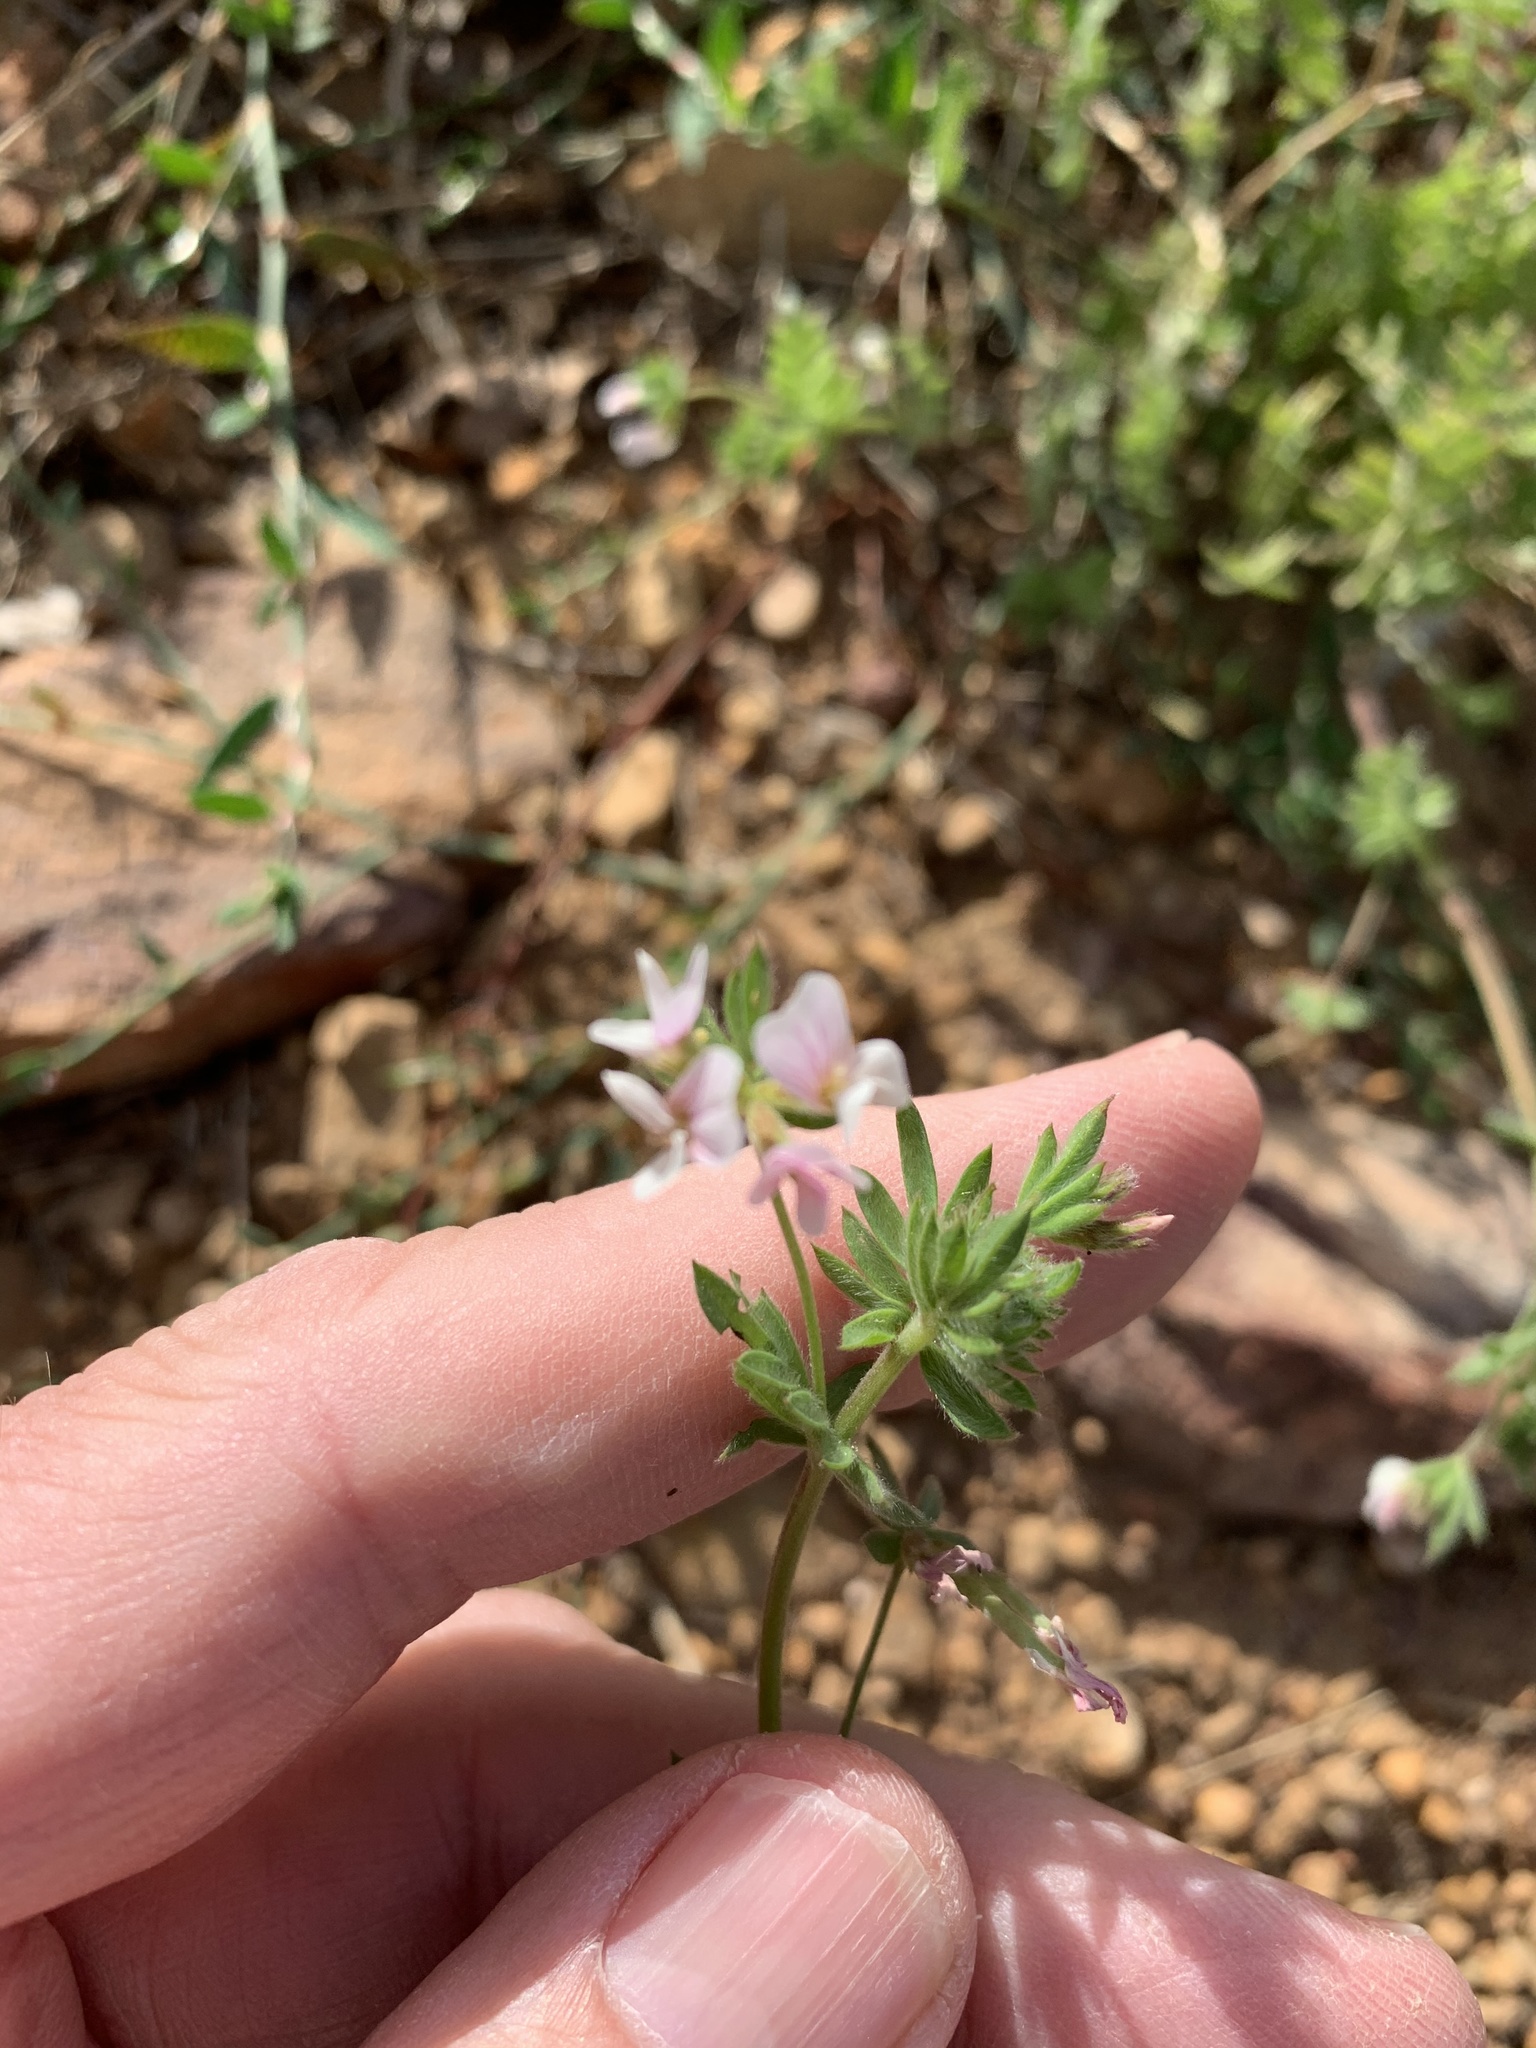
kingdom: Plantae
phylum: Tracheophyta
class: Magnoliopsida
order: Fabales
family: Fabaceae
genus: Ornithopus
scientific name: Ornithopus sativus
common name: Serradella
